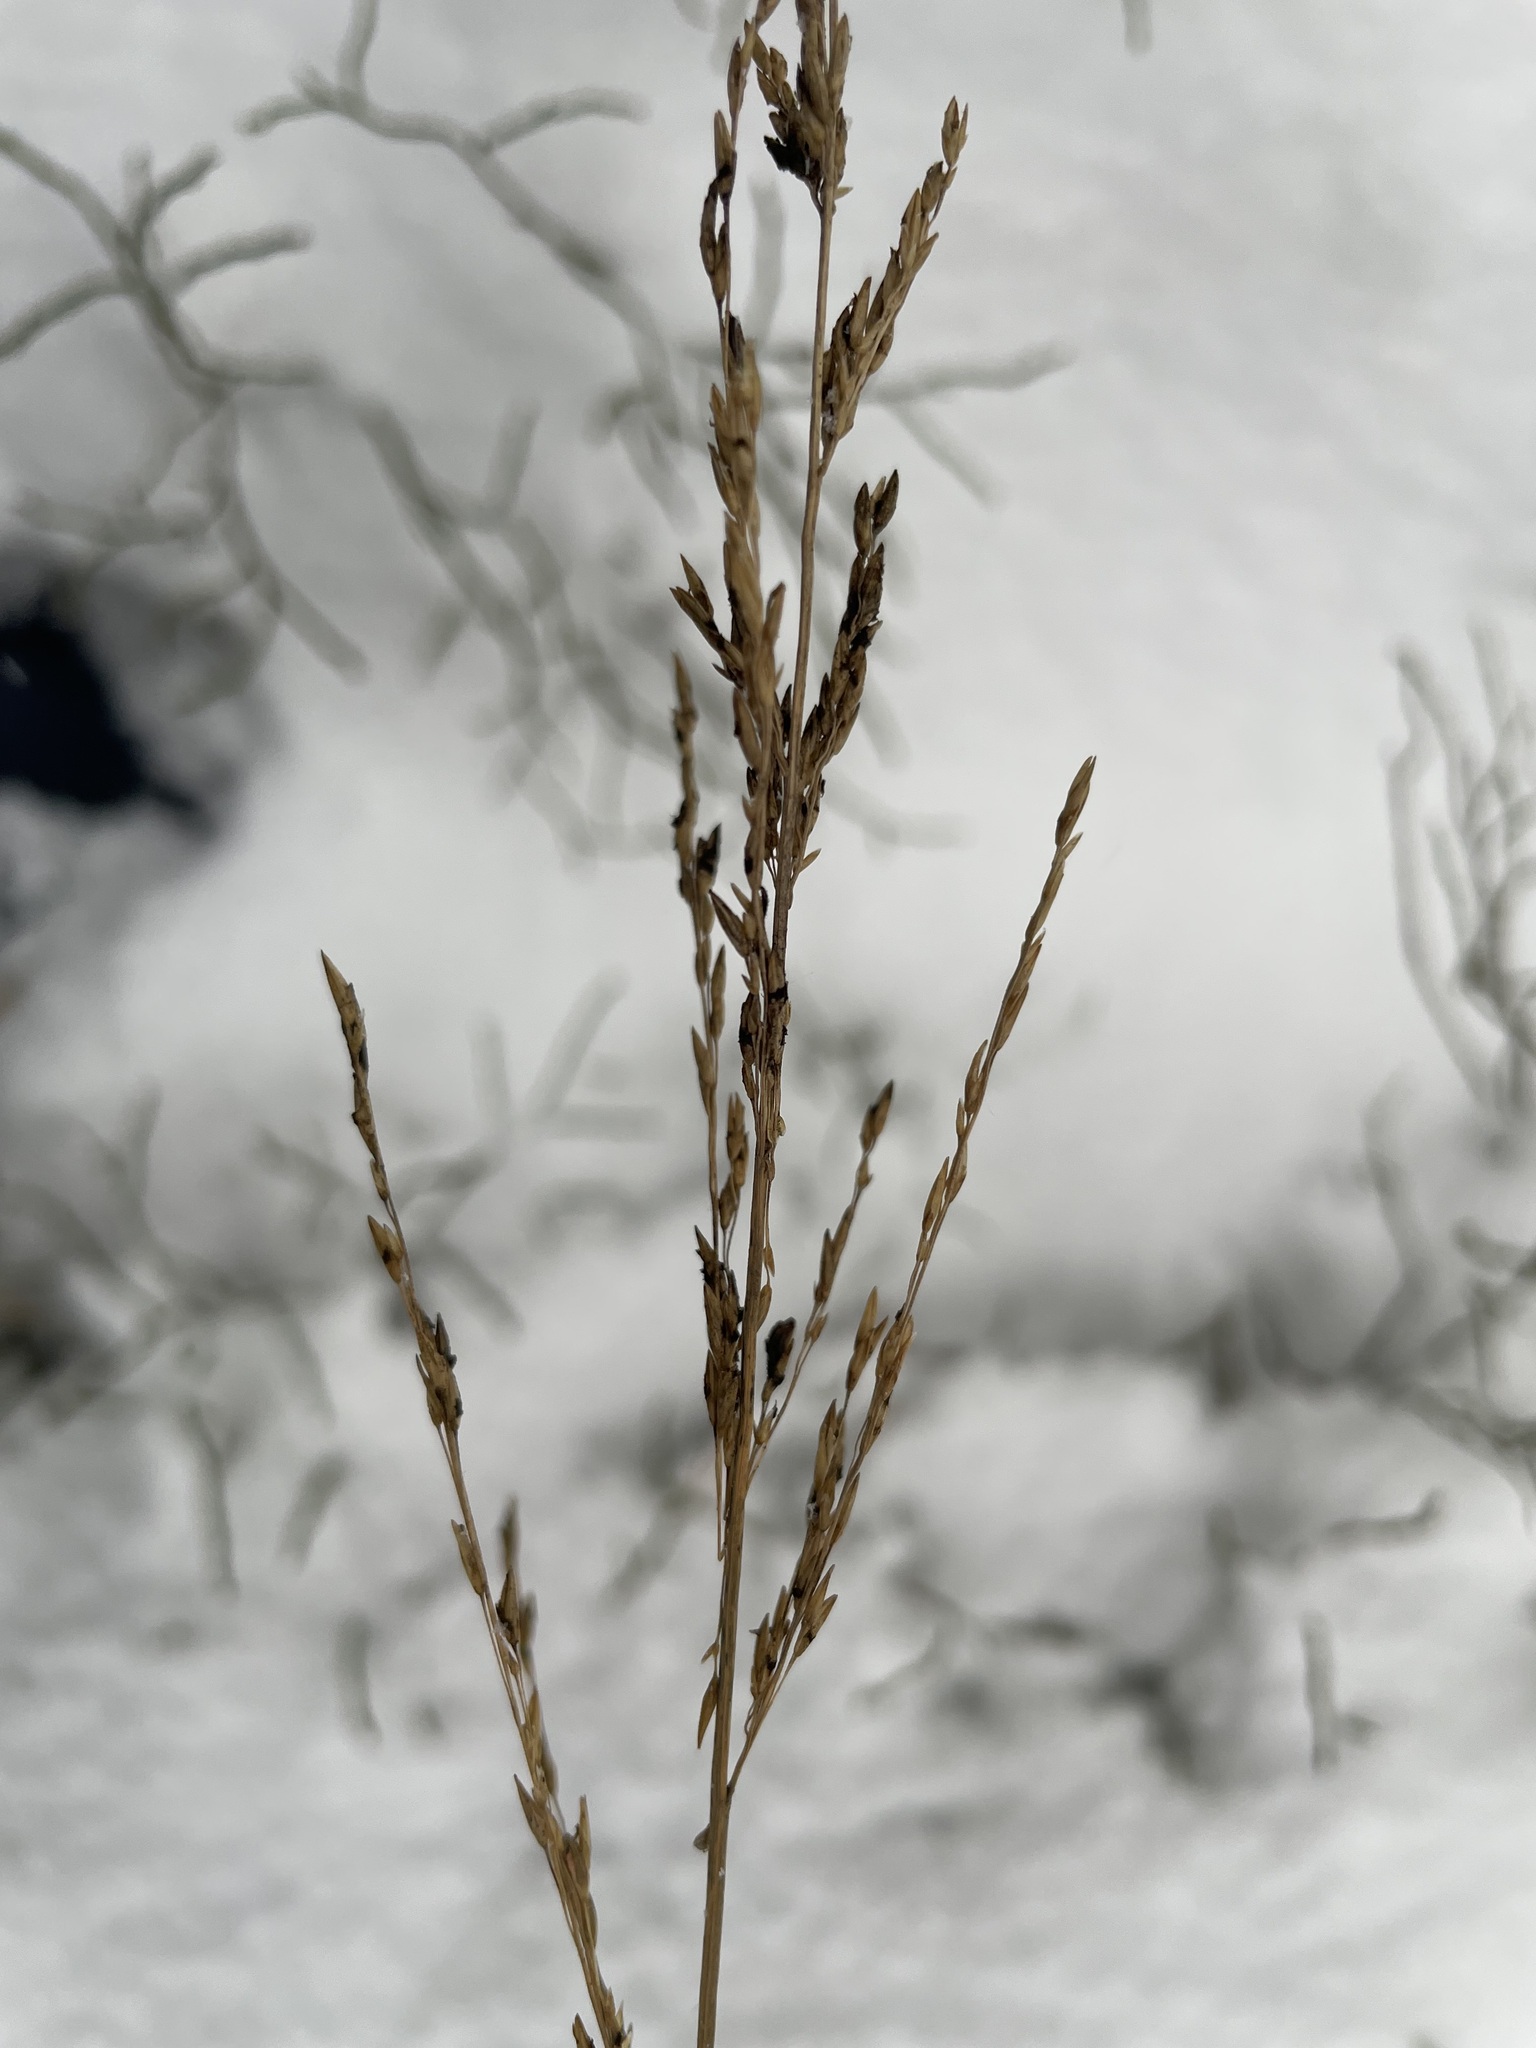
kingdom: Plantae
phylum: Tracheophyta
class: Liliopsida
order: Poales
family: Poaceae
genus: Molinia
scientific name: Molinia caerulea
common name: Purple moor-grass
